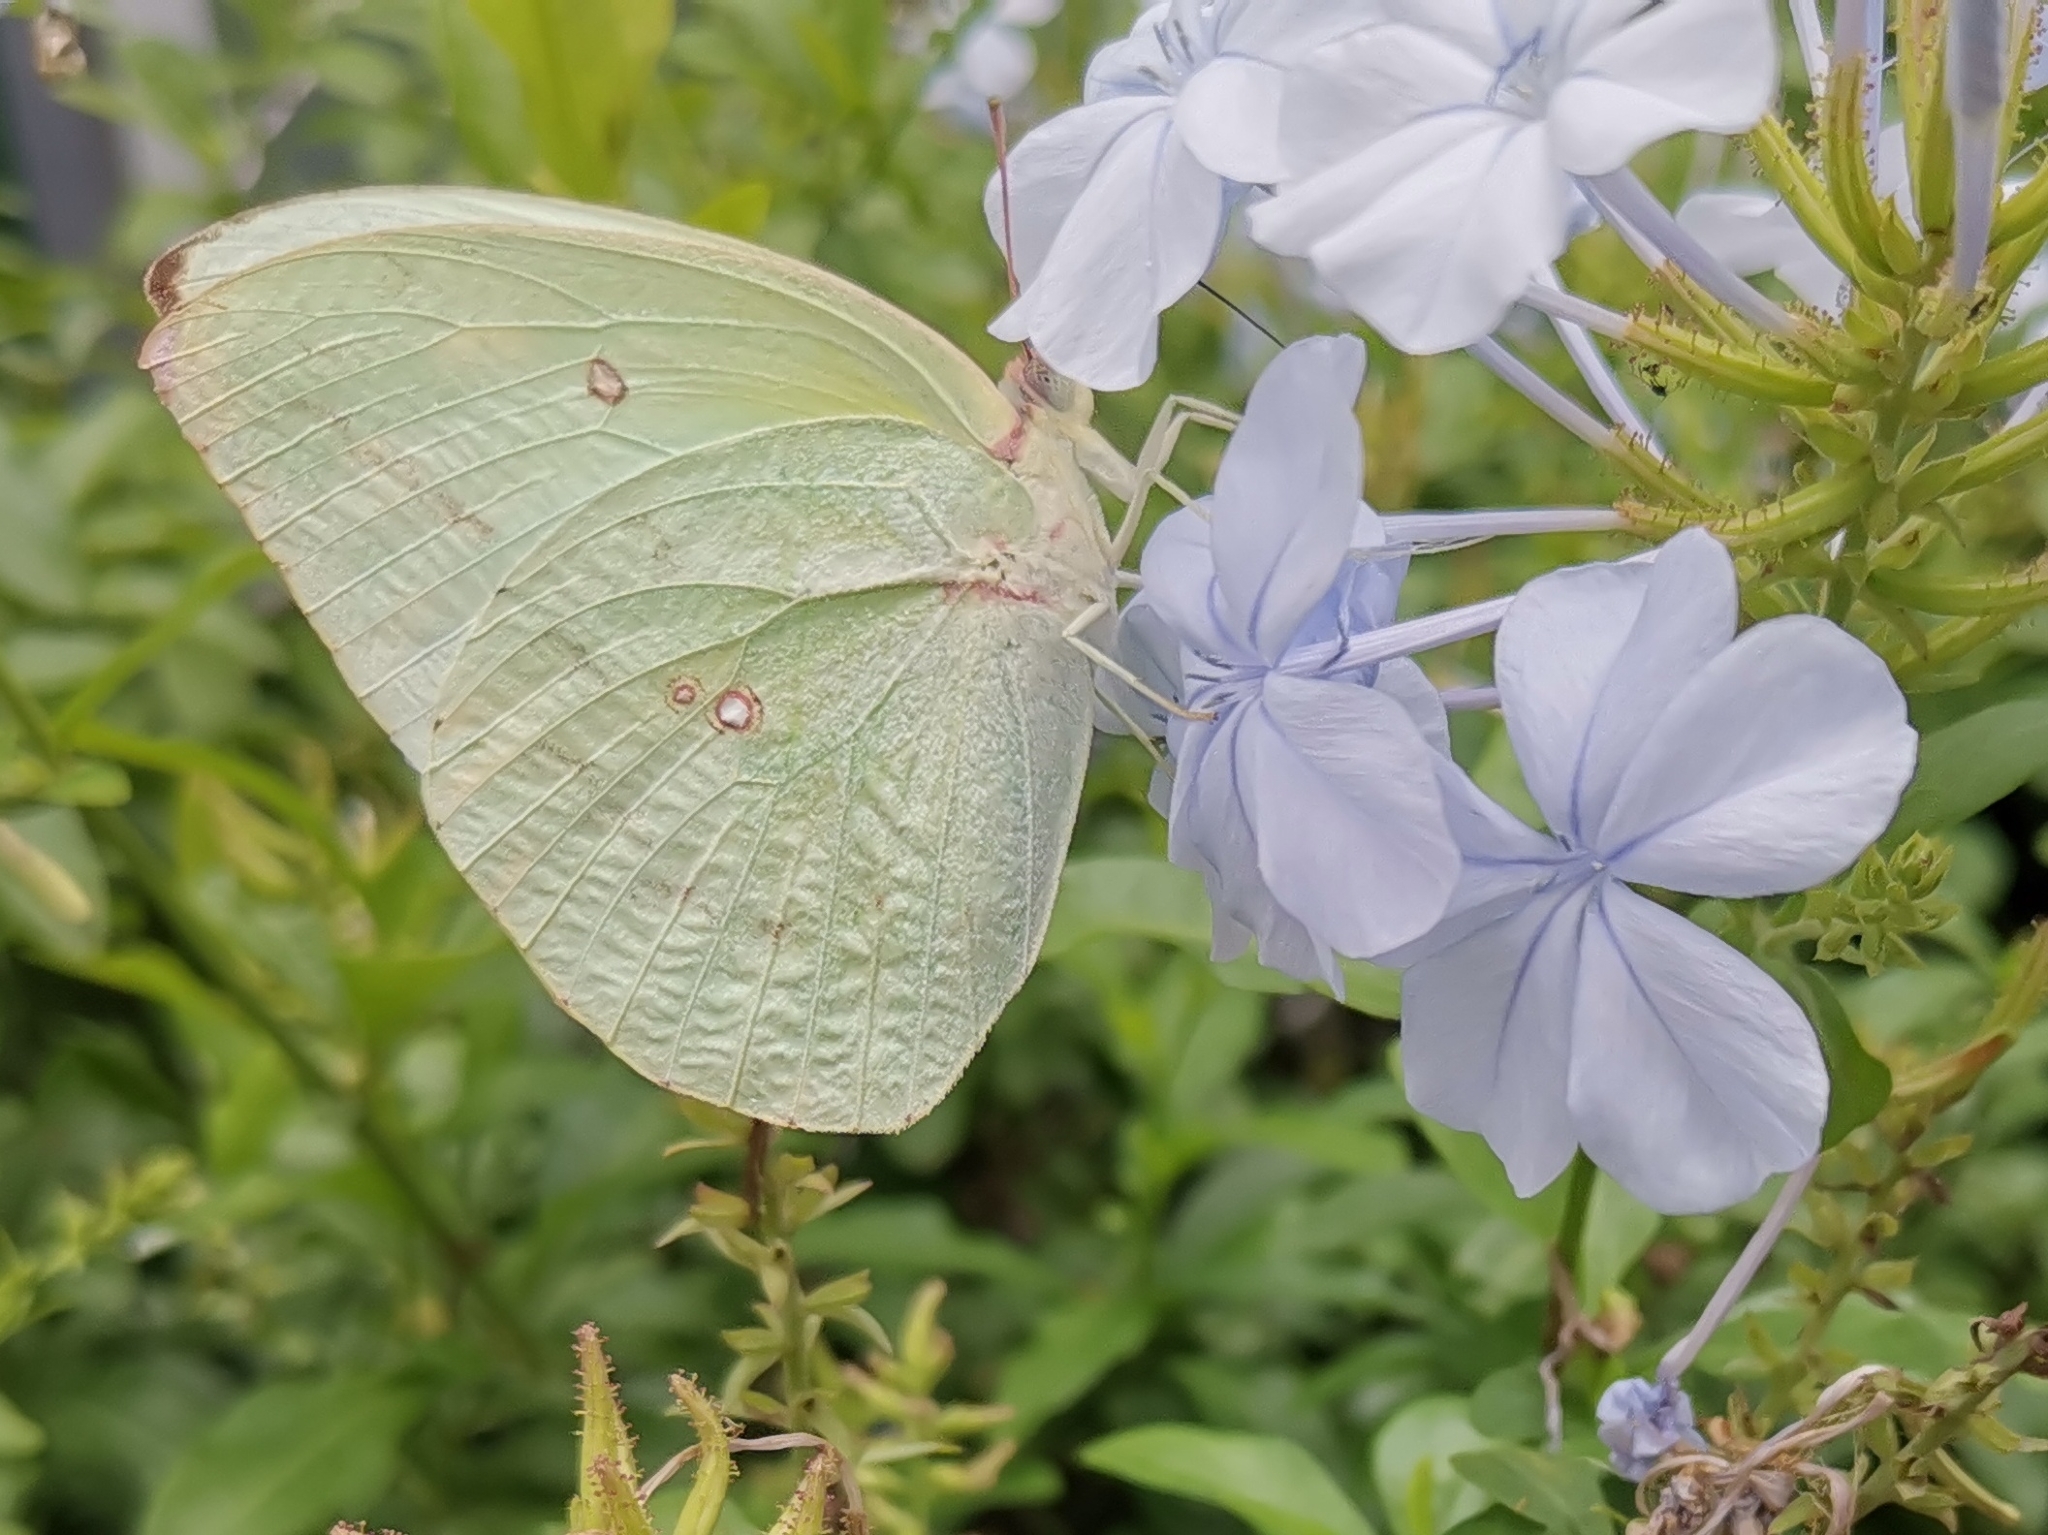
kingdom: Animalia
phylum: Arthropoda
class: Insecta
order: Lepidoptera
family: Pieridae
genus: Catopsilia
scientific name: Catopsilia pomona
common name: Common emigrant
